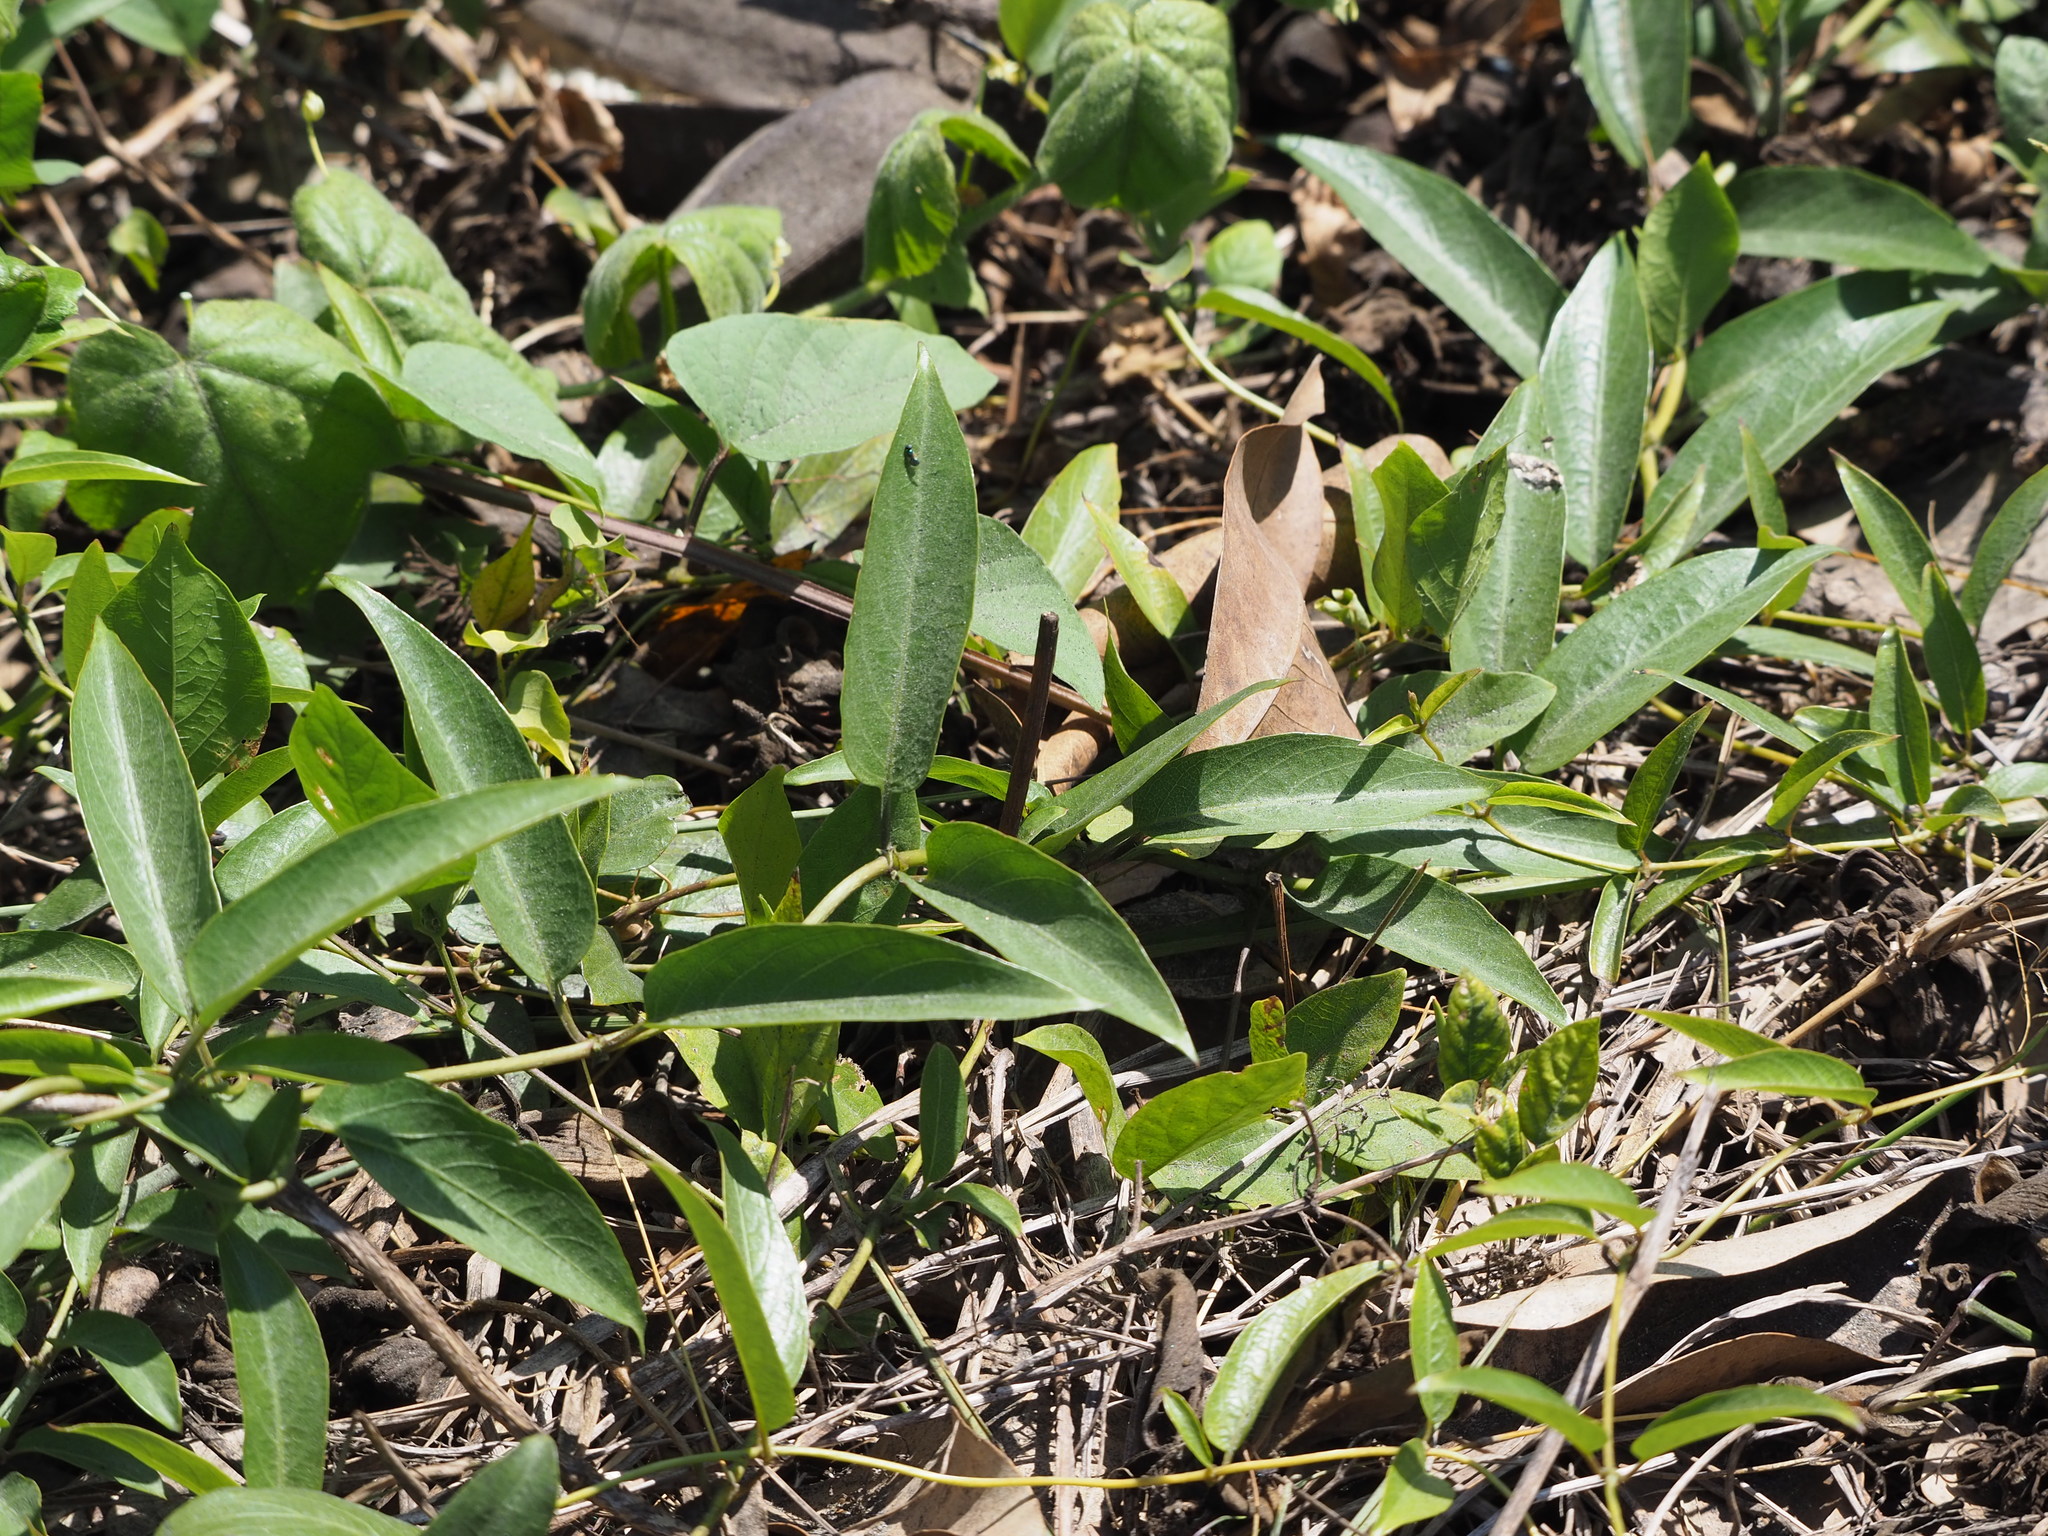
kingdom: Plantae
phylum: Tracheophyta
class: Magnoliopsida
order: Gentianales
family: Rubiaceae
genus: Paederia
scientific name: Paederia foetida
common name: Stinkvine
